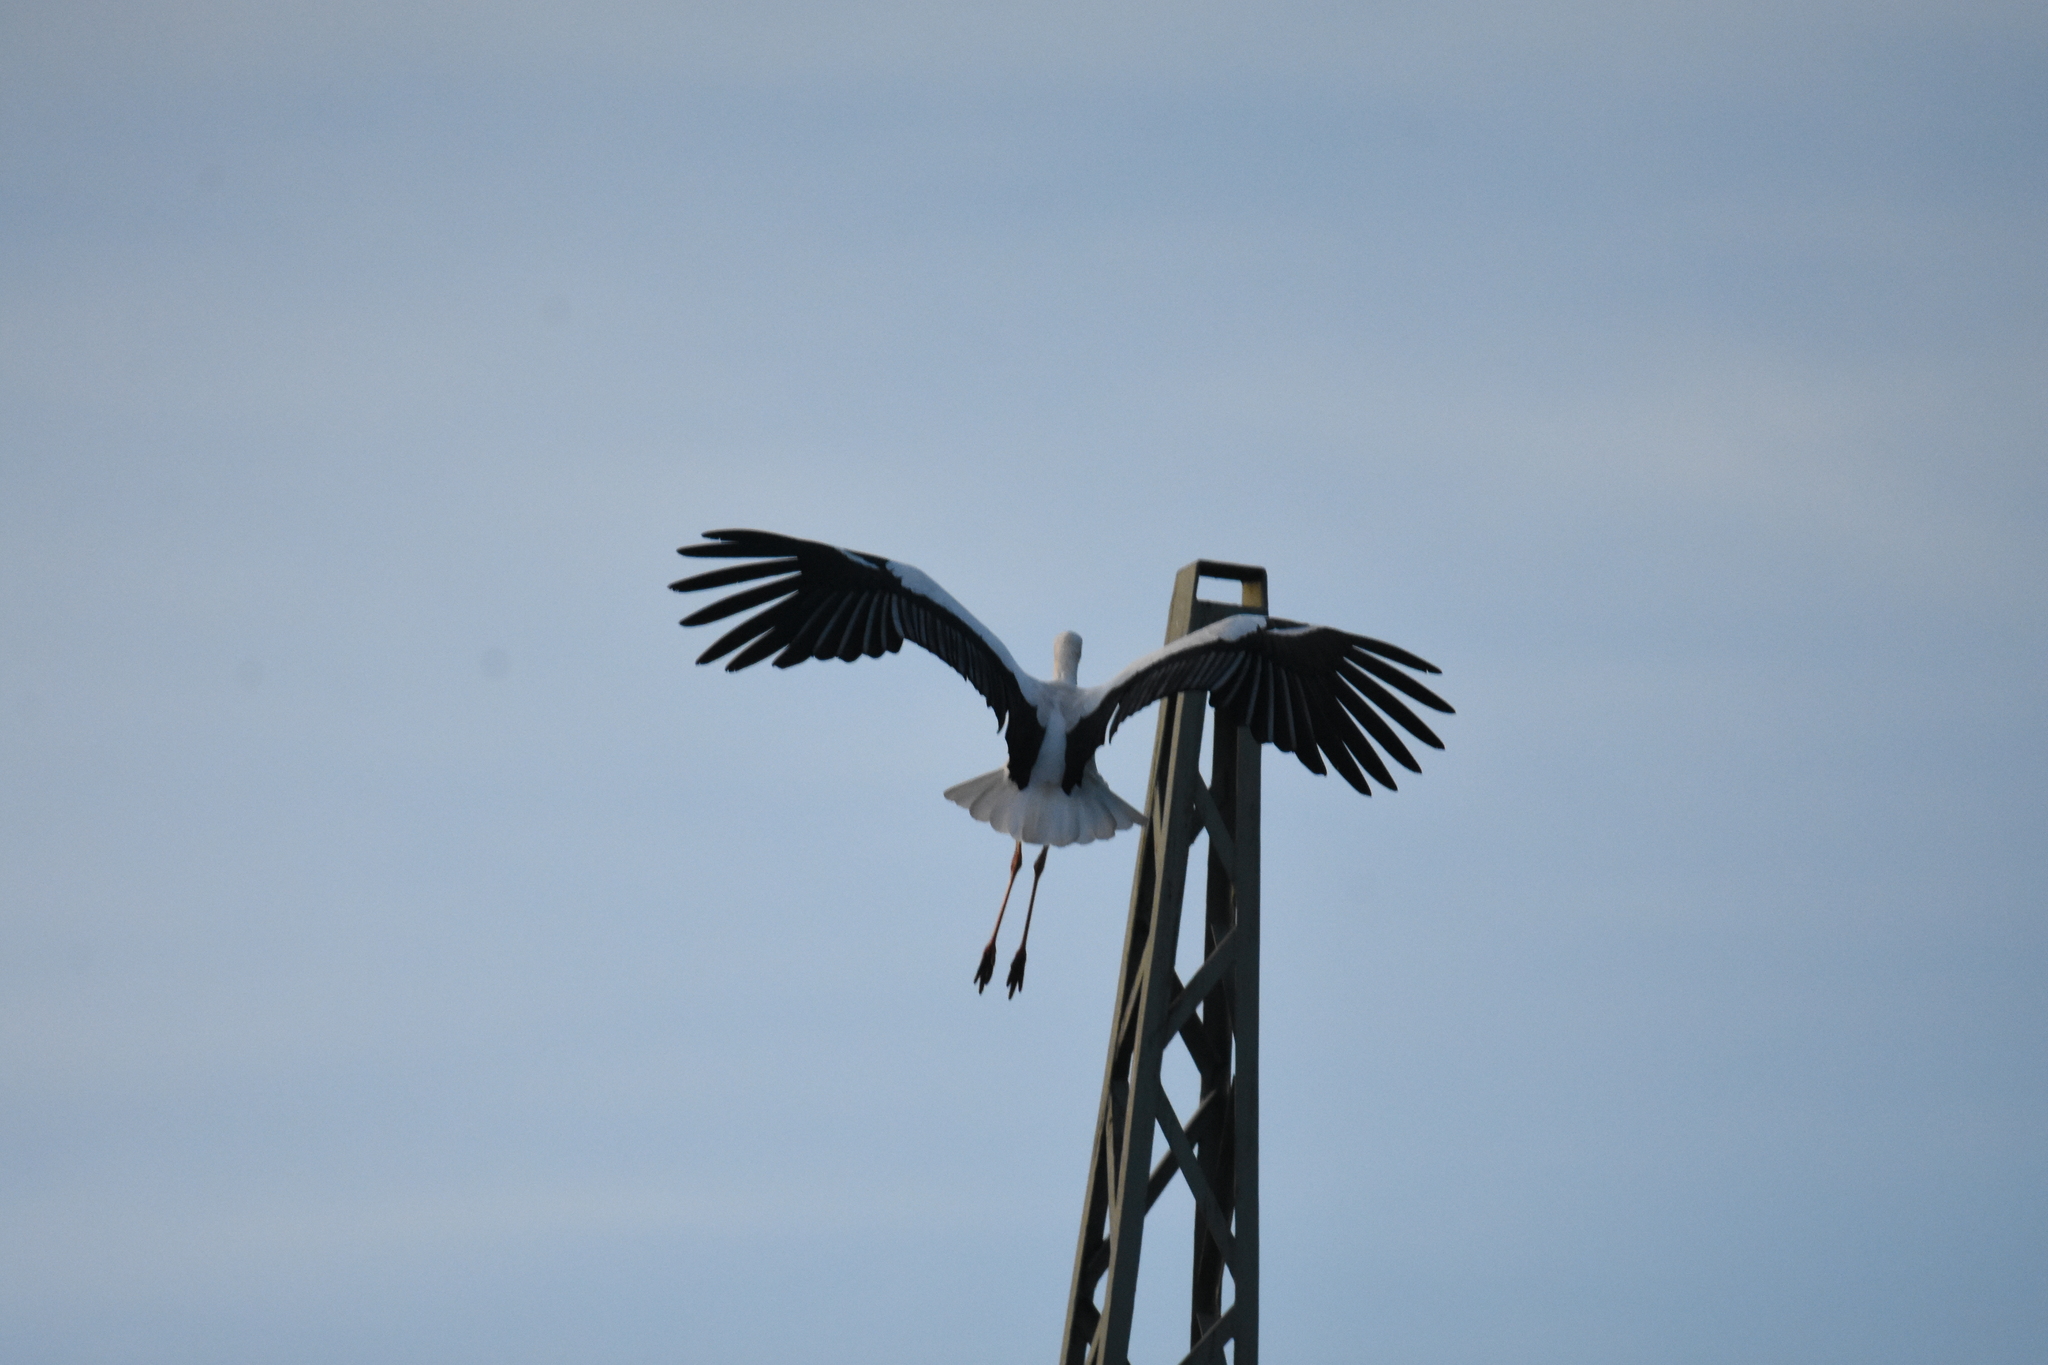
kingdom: Animalia
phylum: Chordata
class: Aves
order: Ciconiiformes
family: Ciconiidae
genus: Ciconia
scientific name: Ciconia ciconia
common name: White stork
